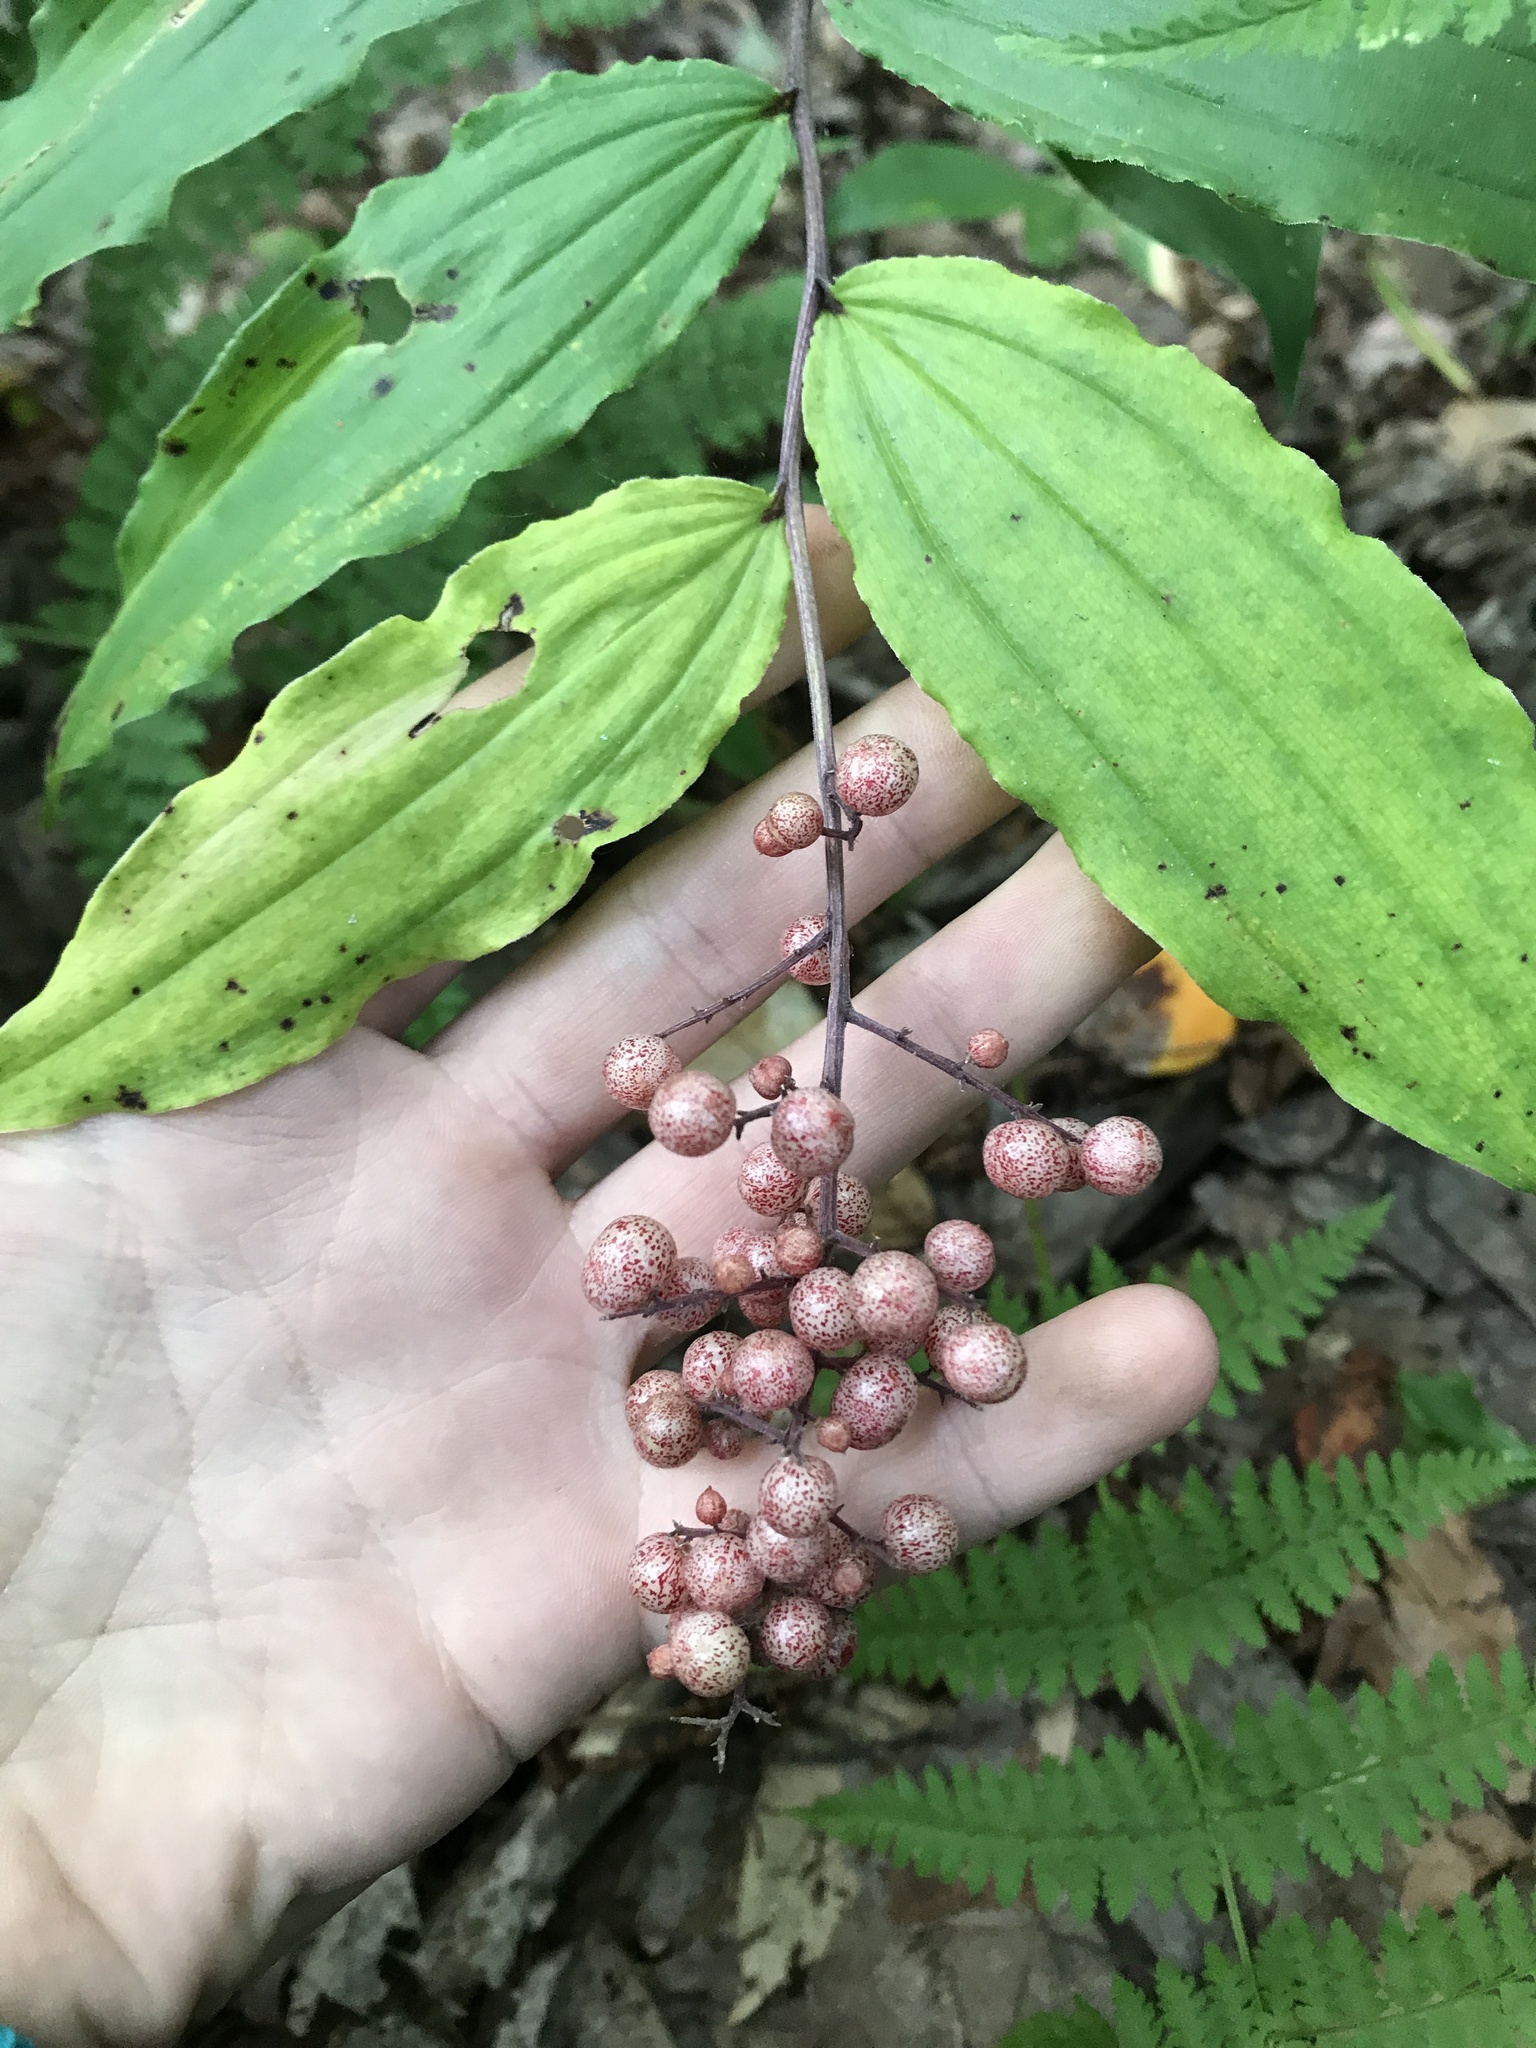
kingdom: Plantae
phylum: Tracheophyta
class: Liliopsida
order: Asparagales
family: Asparagaceae
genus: Maianthemum
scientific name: Maianthemum racemosum
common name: False spikenard
